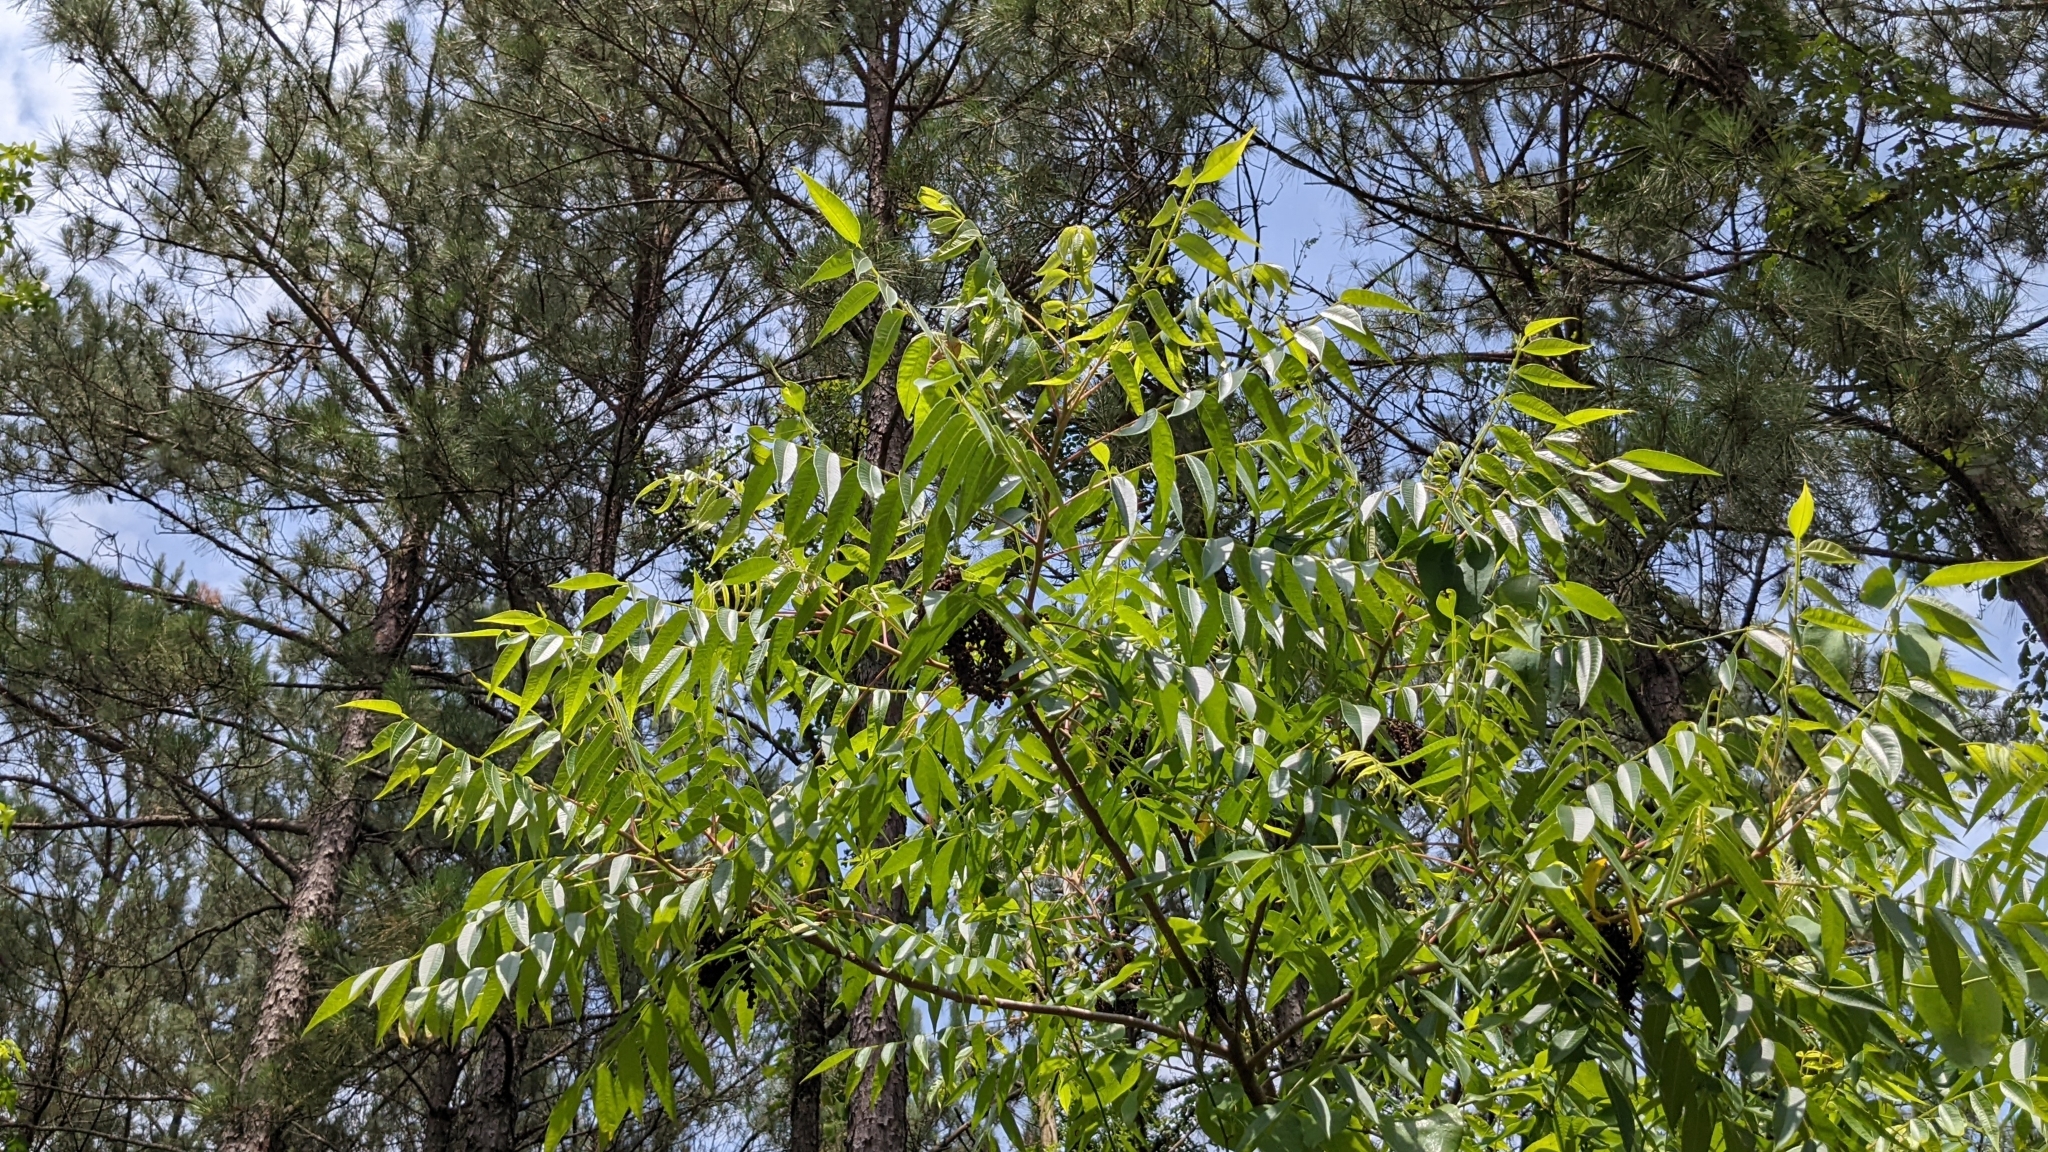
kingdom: Plantae
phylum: Tracheophyta
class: Magnoliopsida
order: Sapindales
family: Anacardiaceae
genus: Rhus
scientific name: Rhus copallina
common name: Shining sumac
